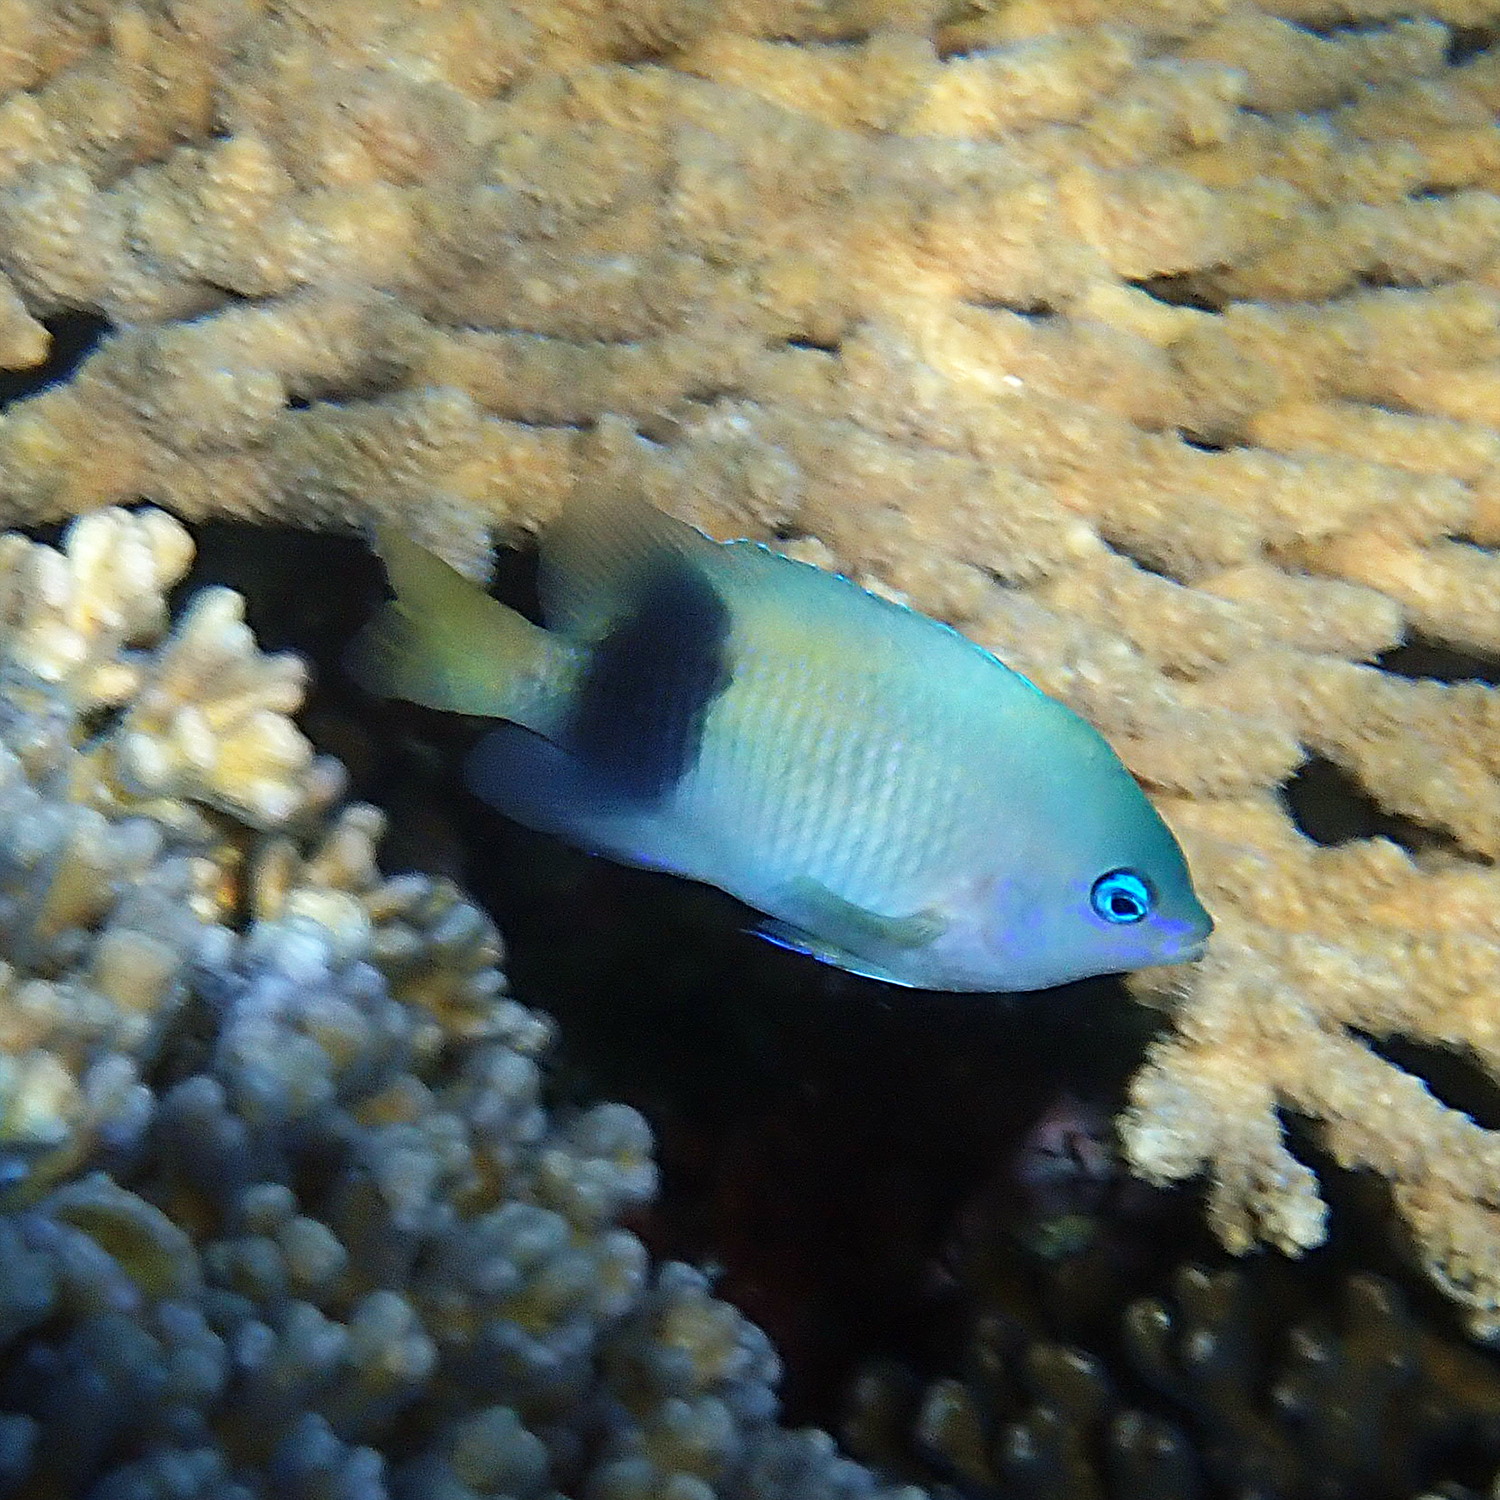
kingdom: Animalia
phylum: Chordata
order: Perciformes
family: Pomacentridae
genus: Plectroglyphidodon
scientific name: Plectroglyphidodon johnstonianus
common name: Johnston damsel
